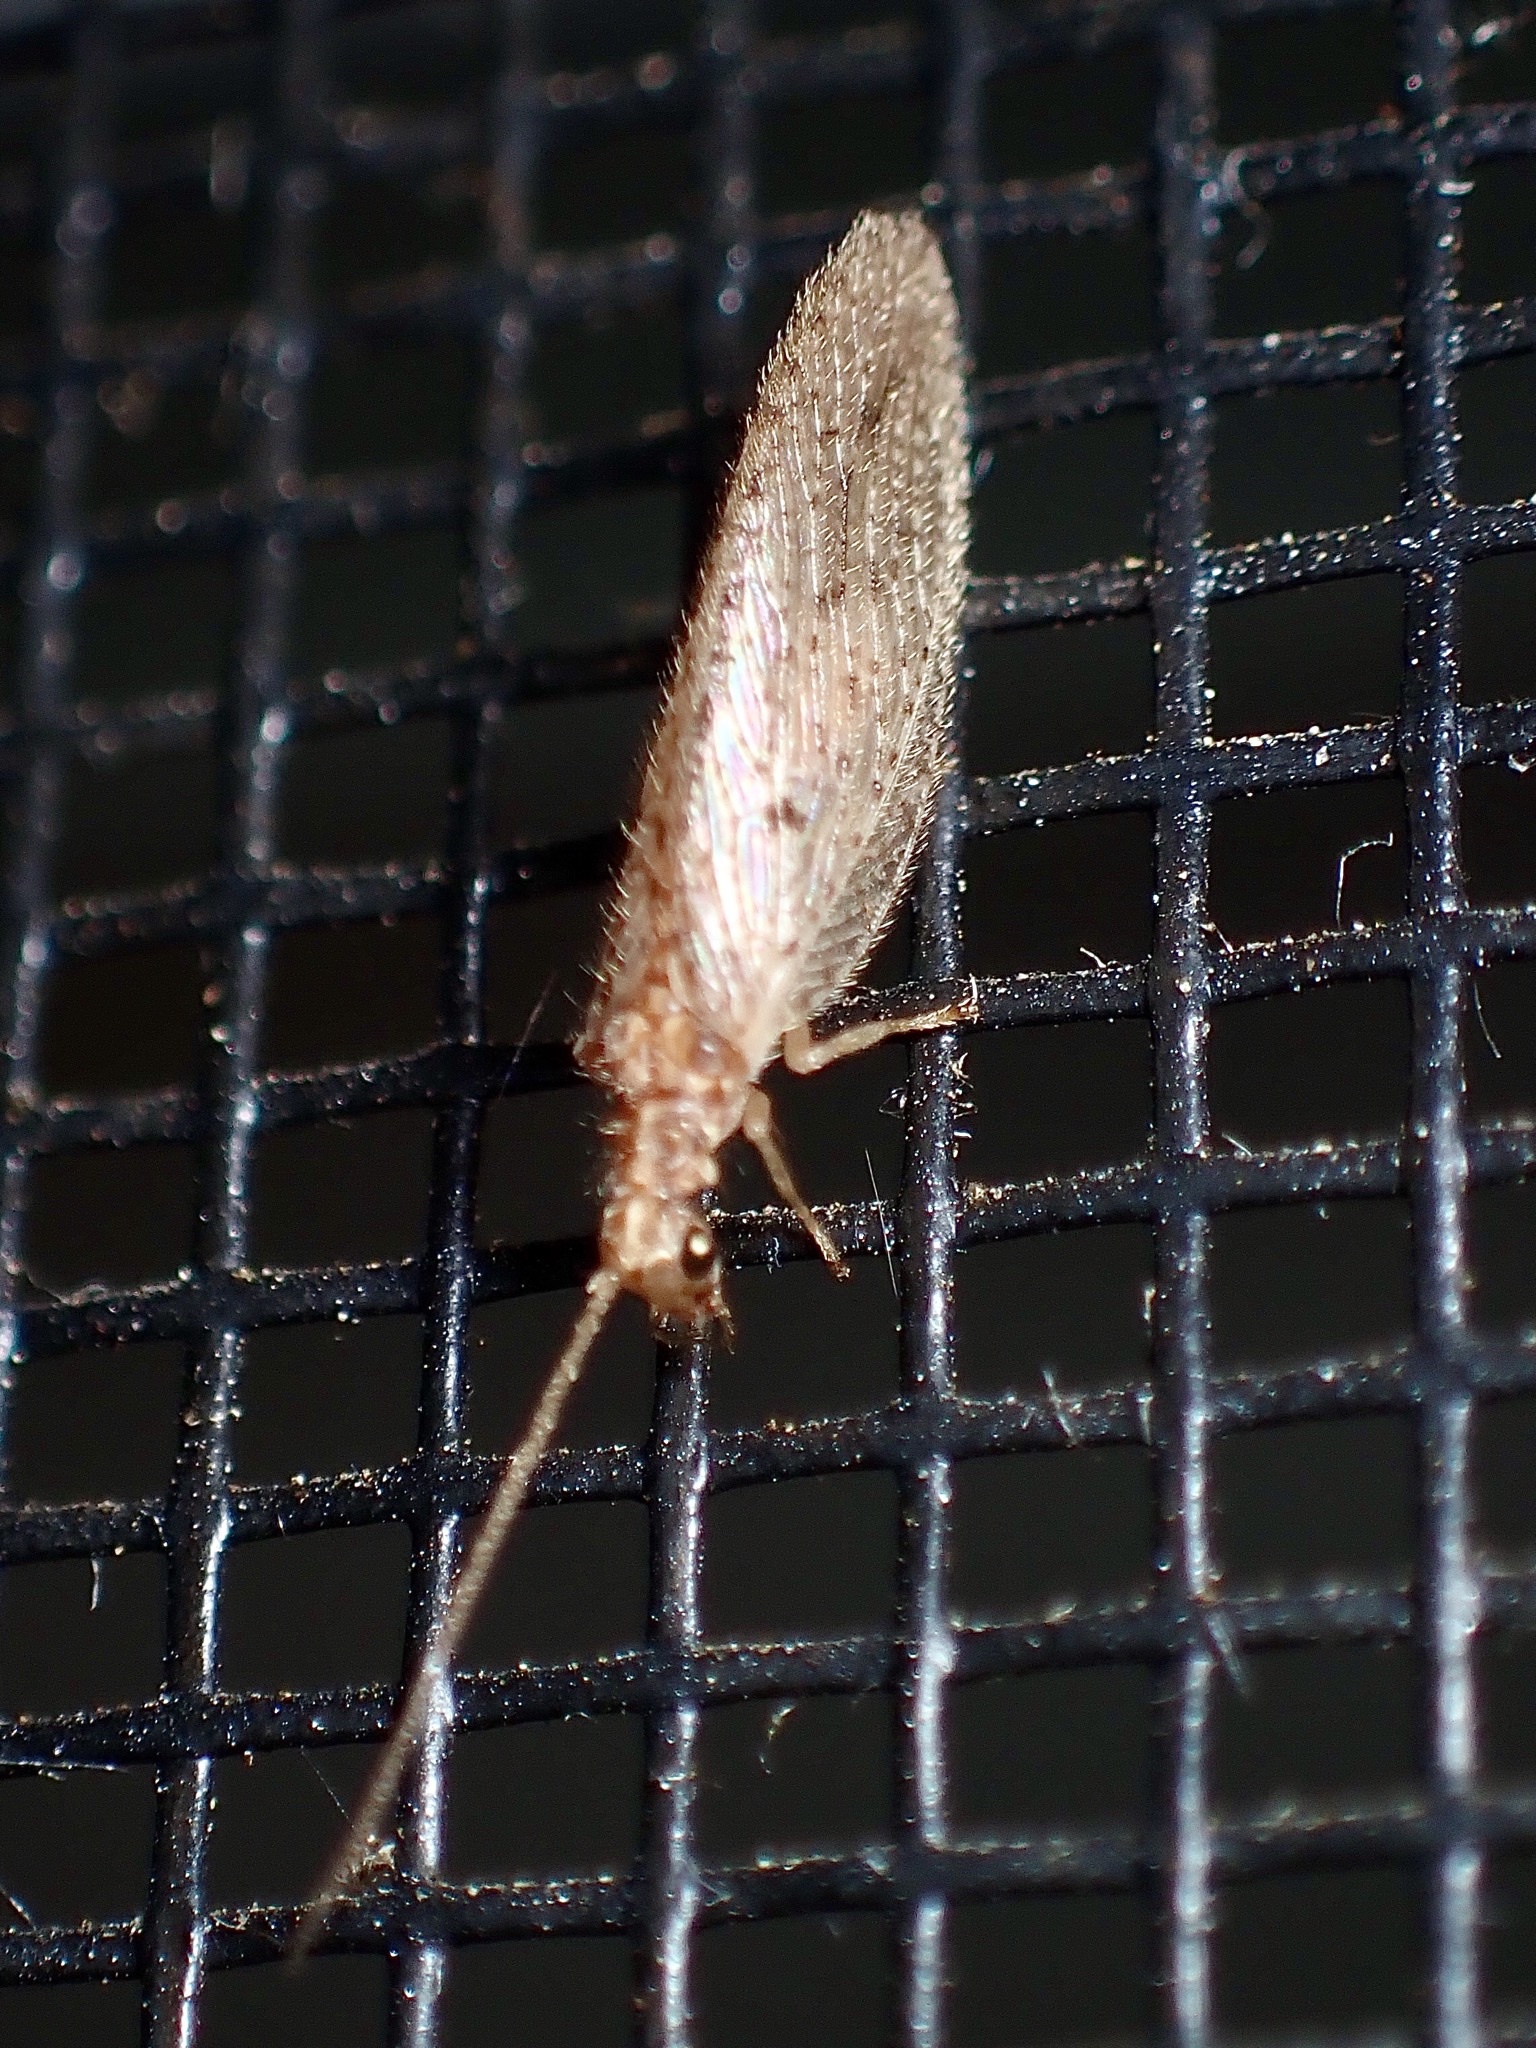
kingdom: Animalia
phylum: Arthropoda
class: Insecta
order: Neuroptera
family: Hemerobiidae
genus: Micromus
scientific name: Micromus subanticus
